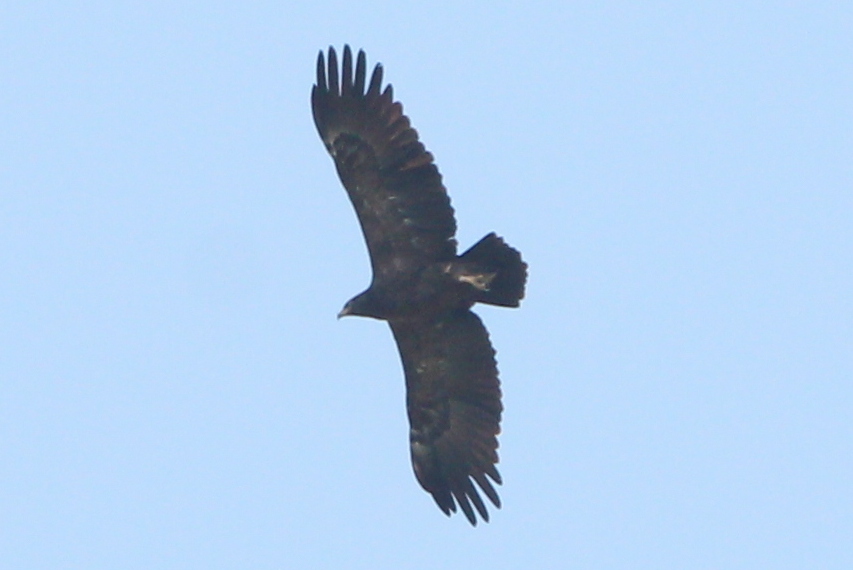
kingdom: Animalia
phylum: Chordata
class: Aves
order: Accipitriformes
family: Accipitridae
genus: Aquila
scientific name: Aquila pomarina
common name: Lesser spotted eagle
